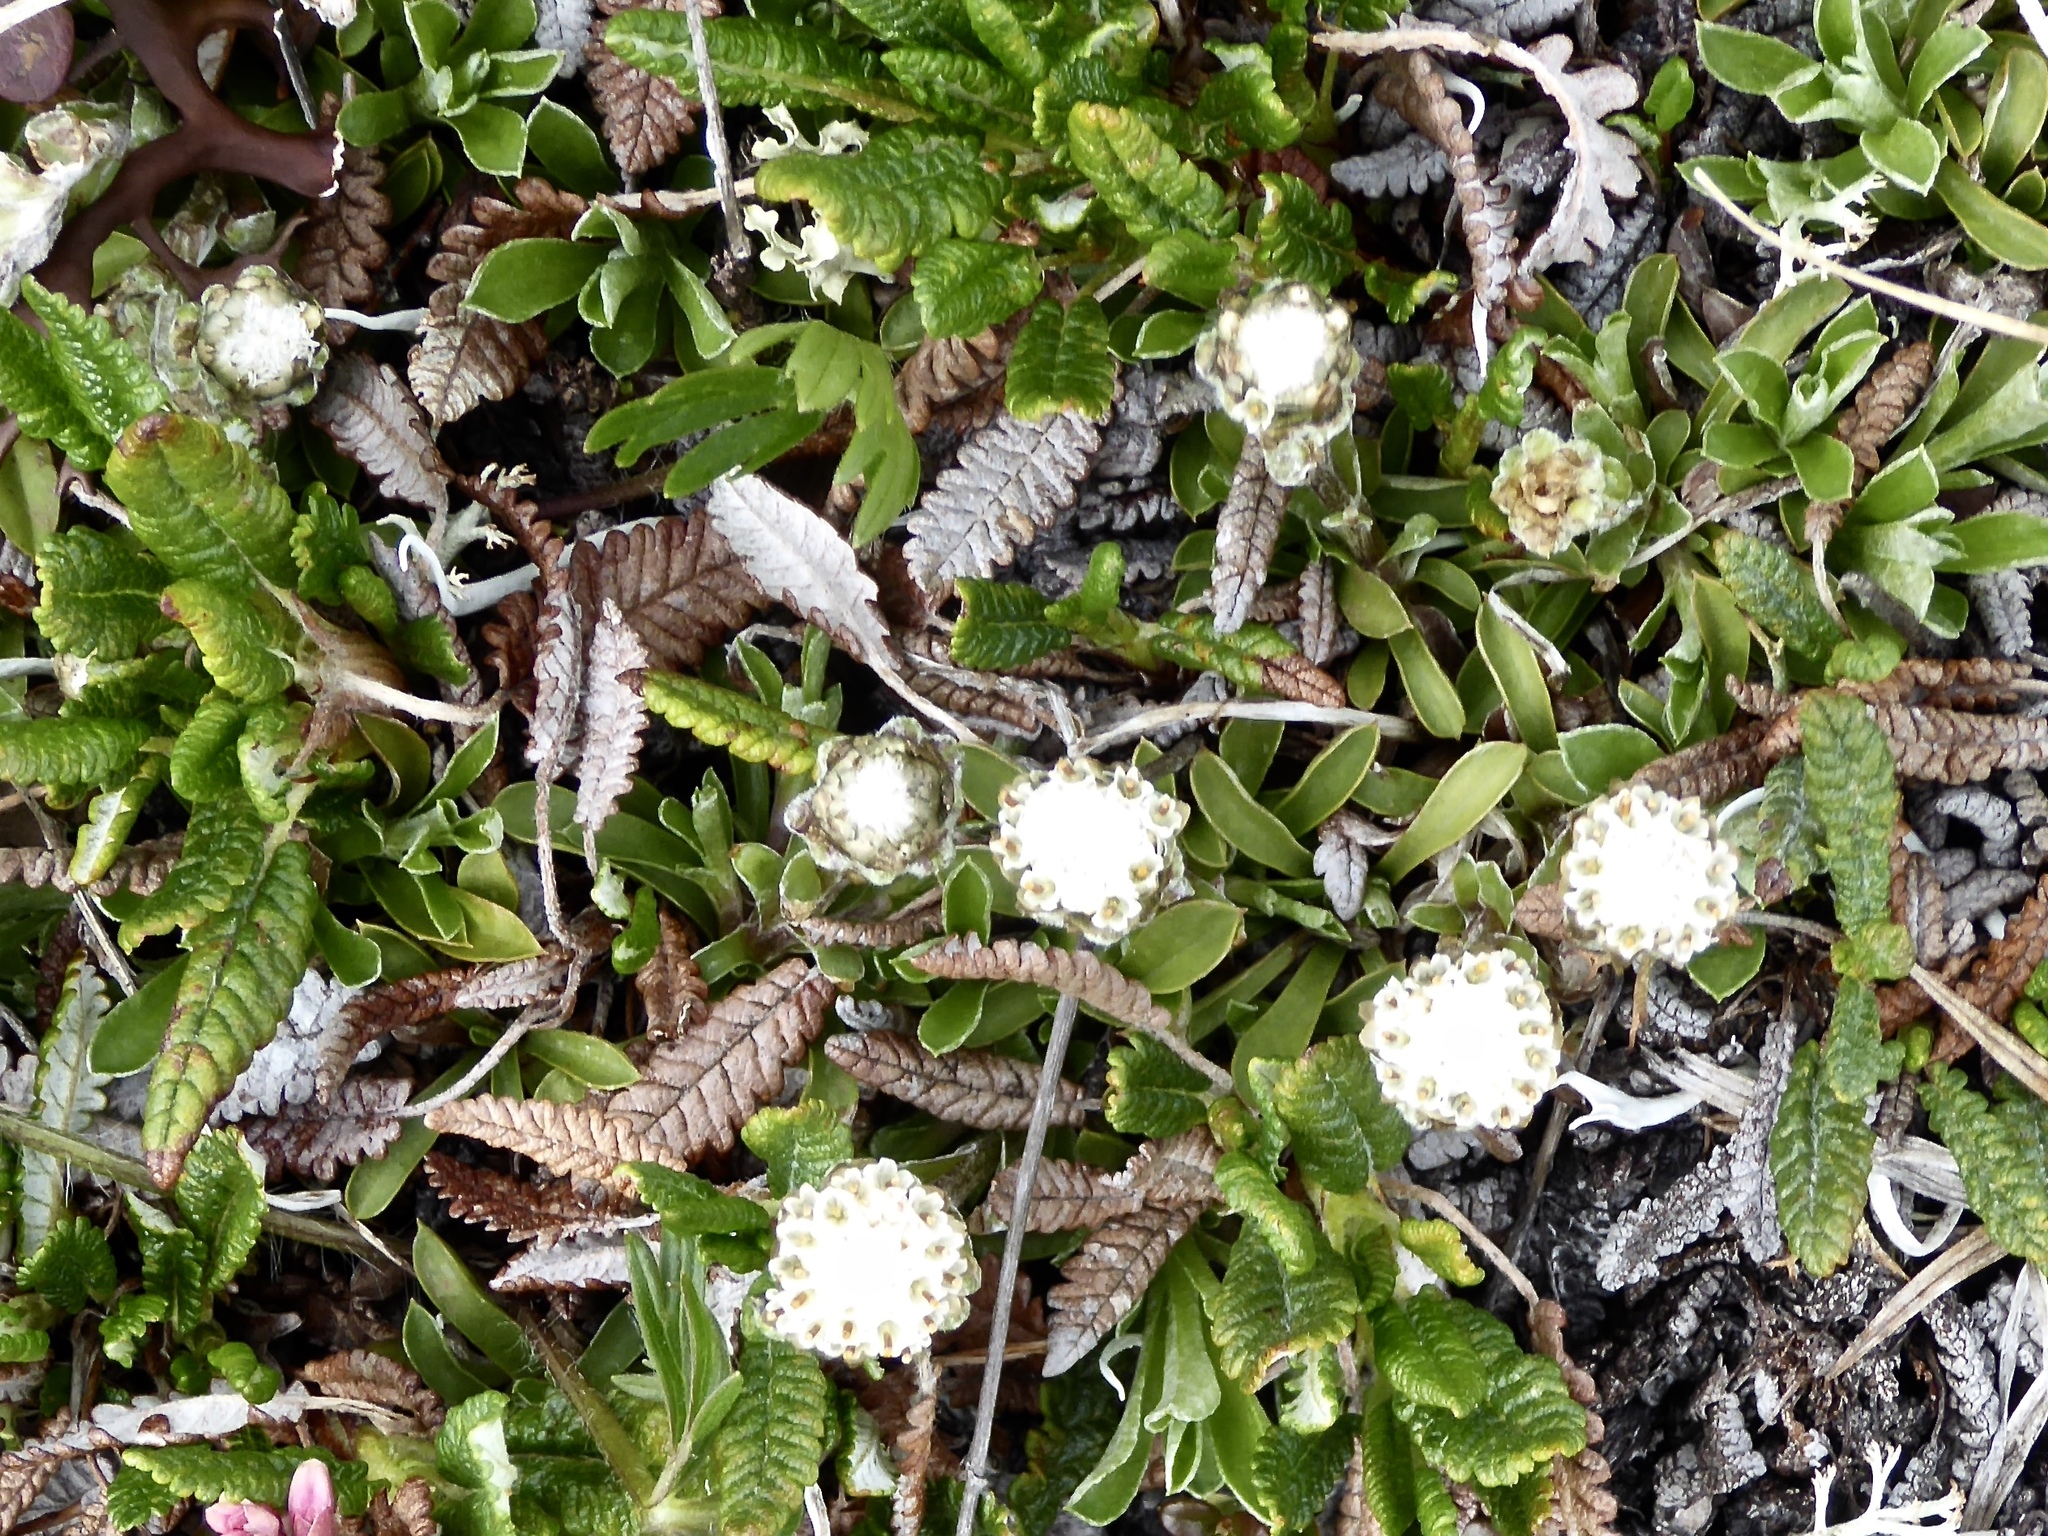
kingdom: Plantae
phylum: Tracheophyta
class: Magnoliopsida
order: Asterales
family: Asteraceae
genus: Antennaria
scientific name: Antennaria monocephala
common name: Pygmy pussytoes
